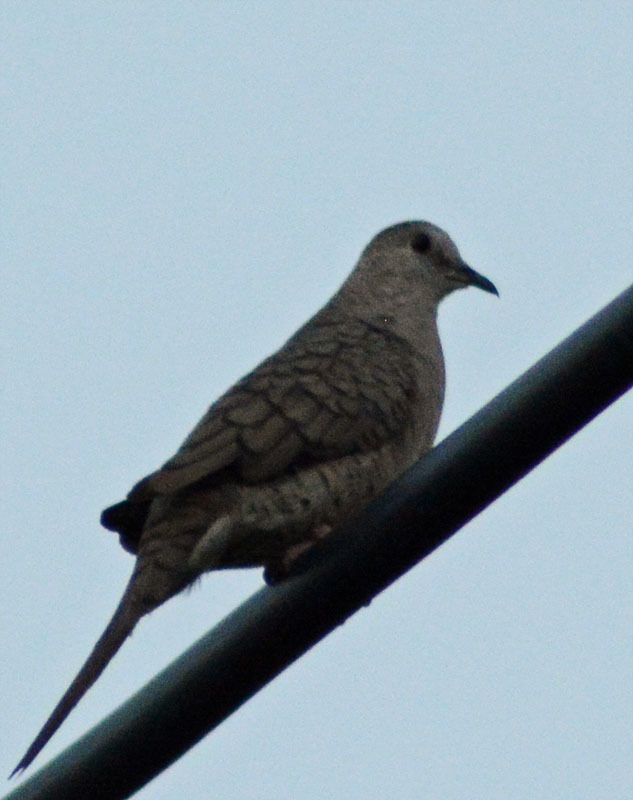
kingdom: Animalia
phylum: Chordata
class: Aves
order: Columbiformes
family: Columbidae
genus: Columbina
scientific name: Columbina inca
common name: Inca dove
